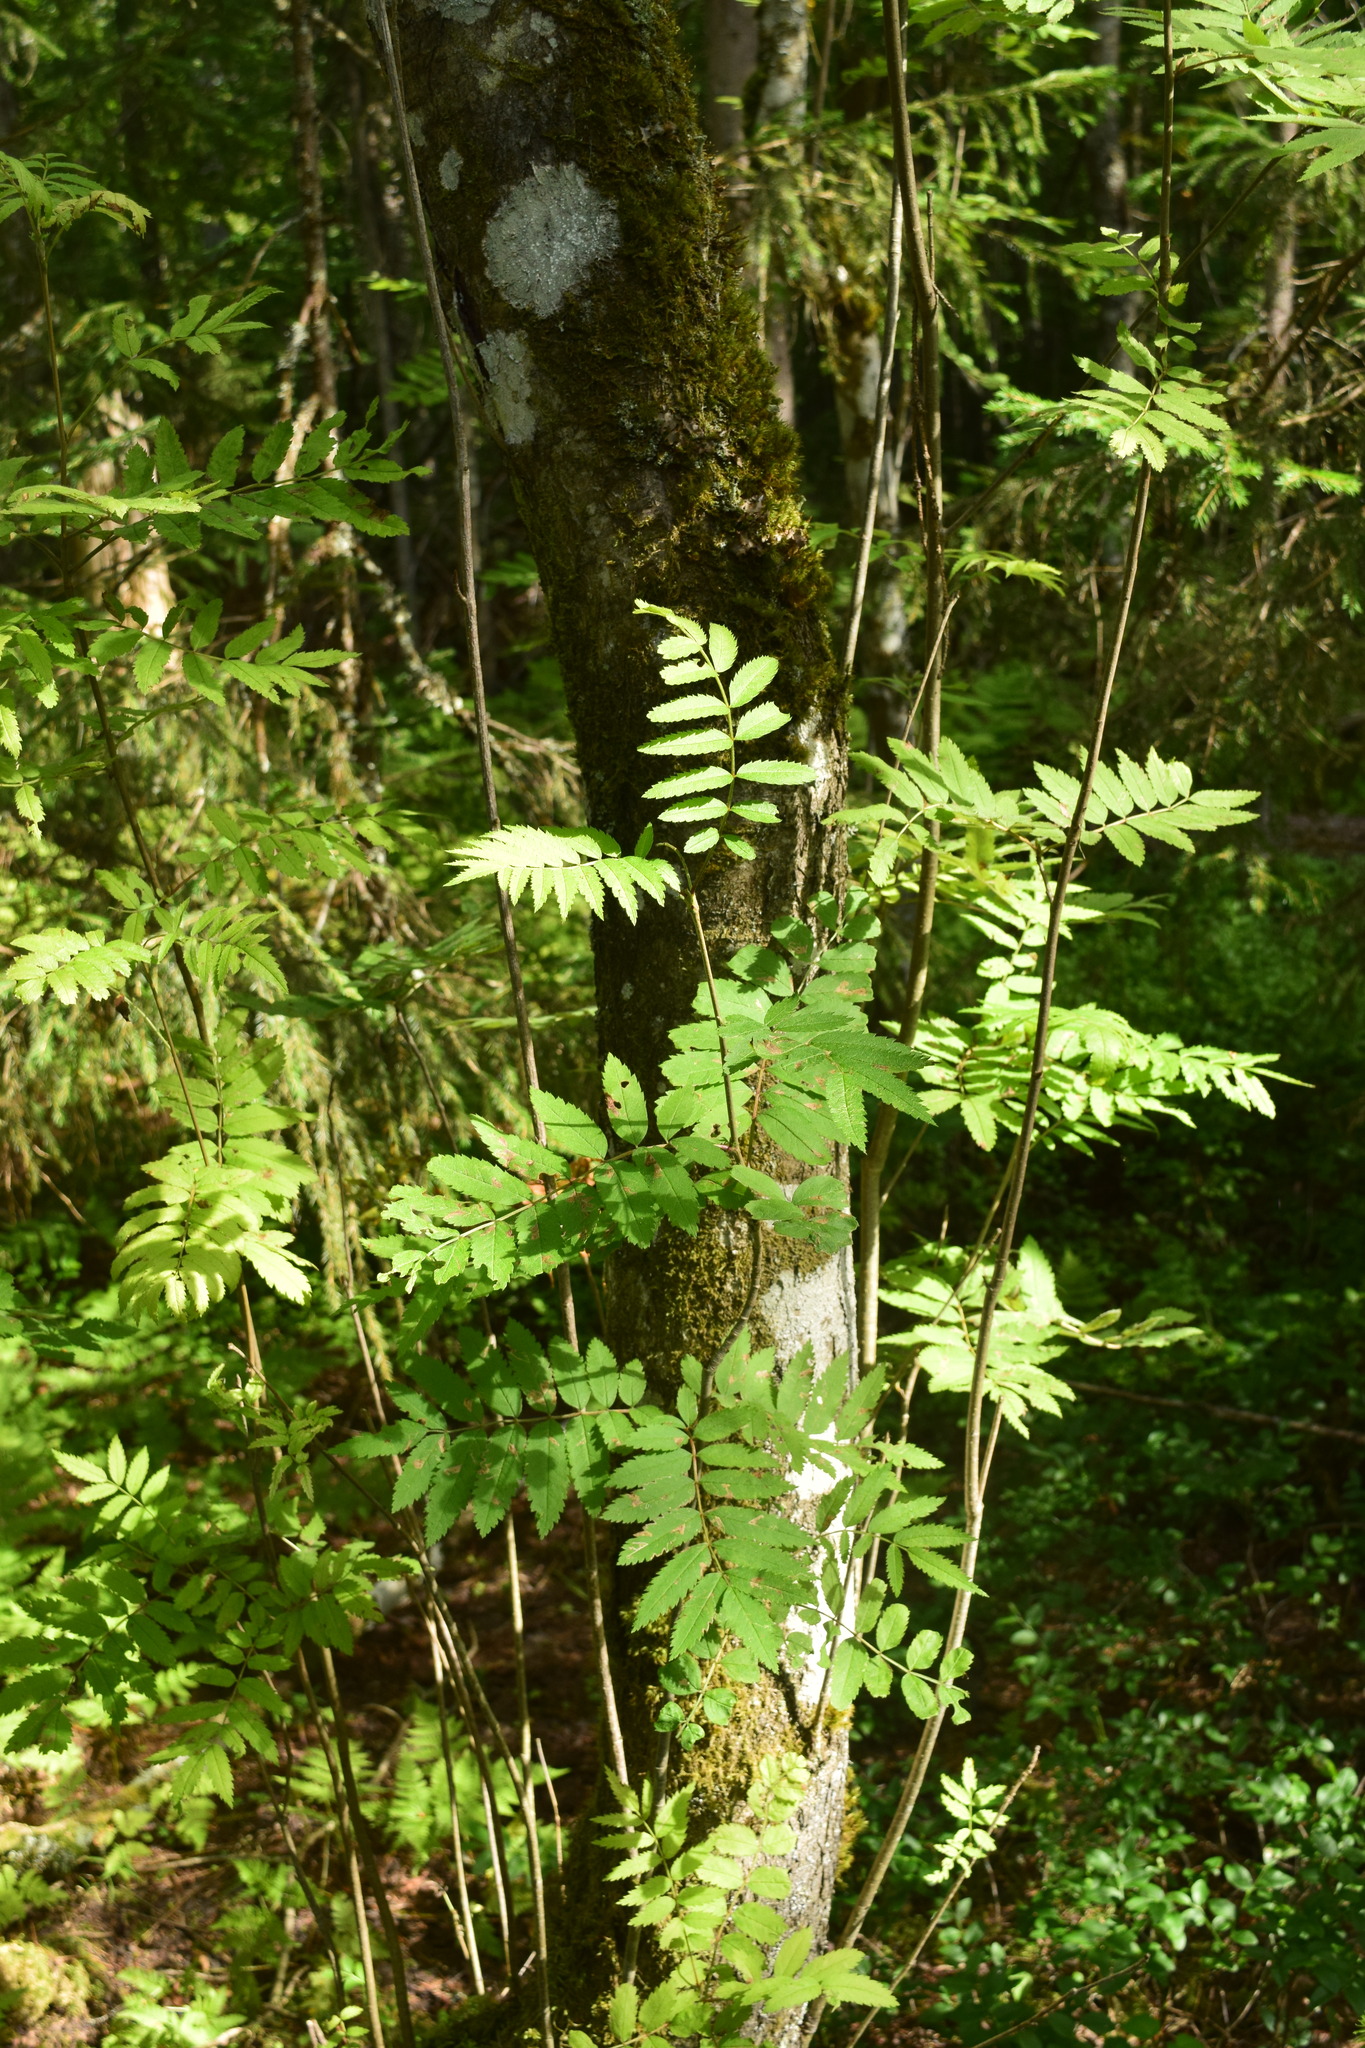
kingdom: Plantae
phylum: Tracheophyta
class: Magnoliopsida
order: Rosales
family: Rosaceae
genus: Sorbus
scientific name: Sorbus aucuparia
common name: Rowan
